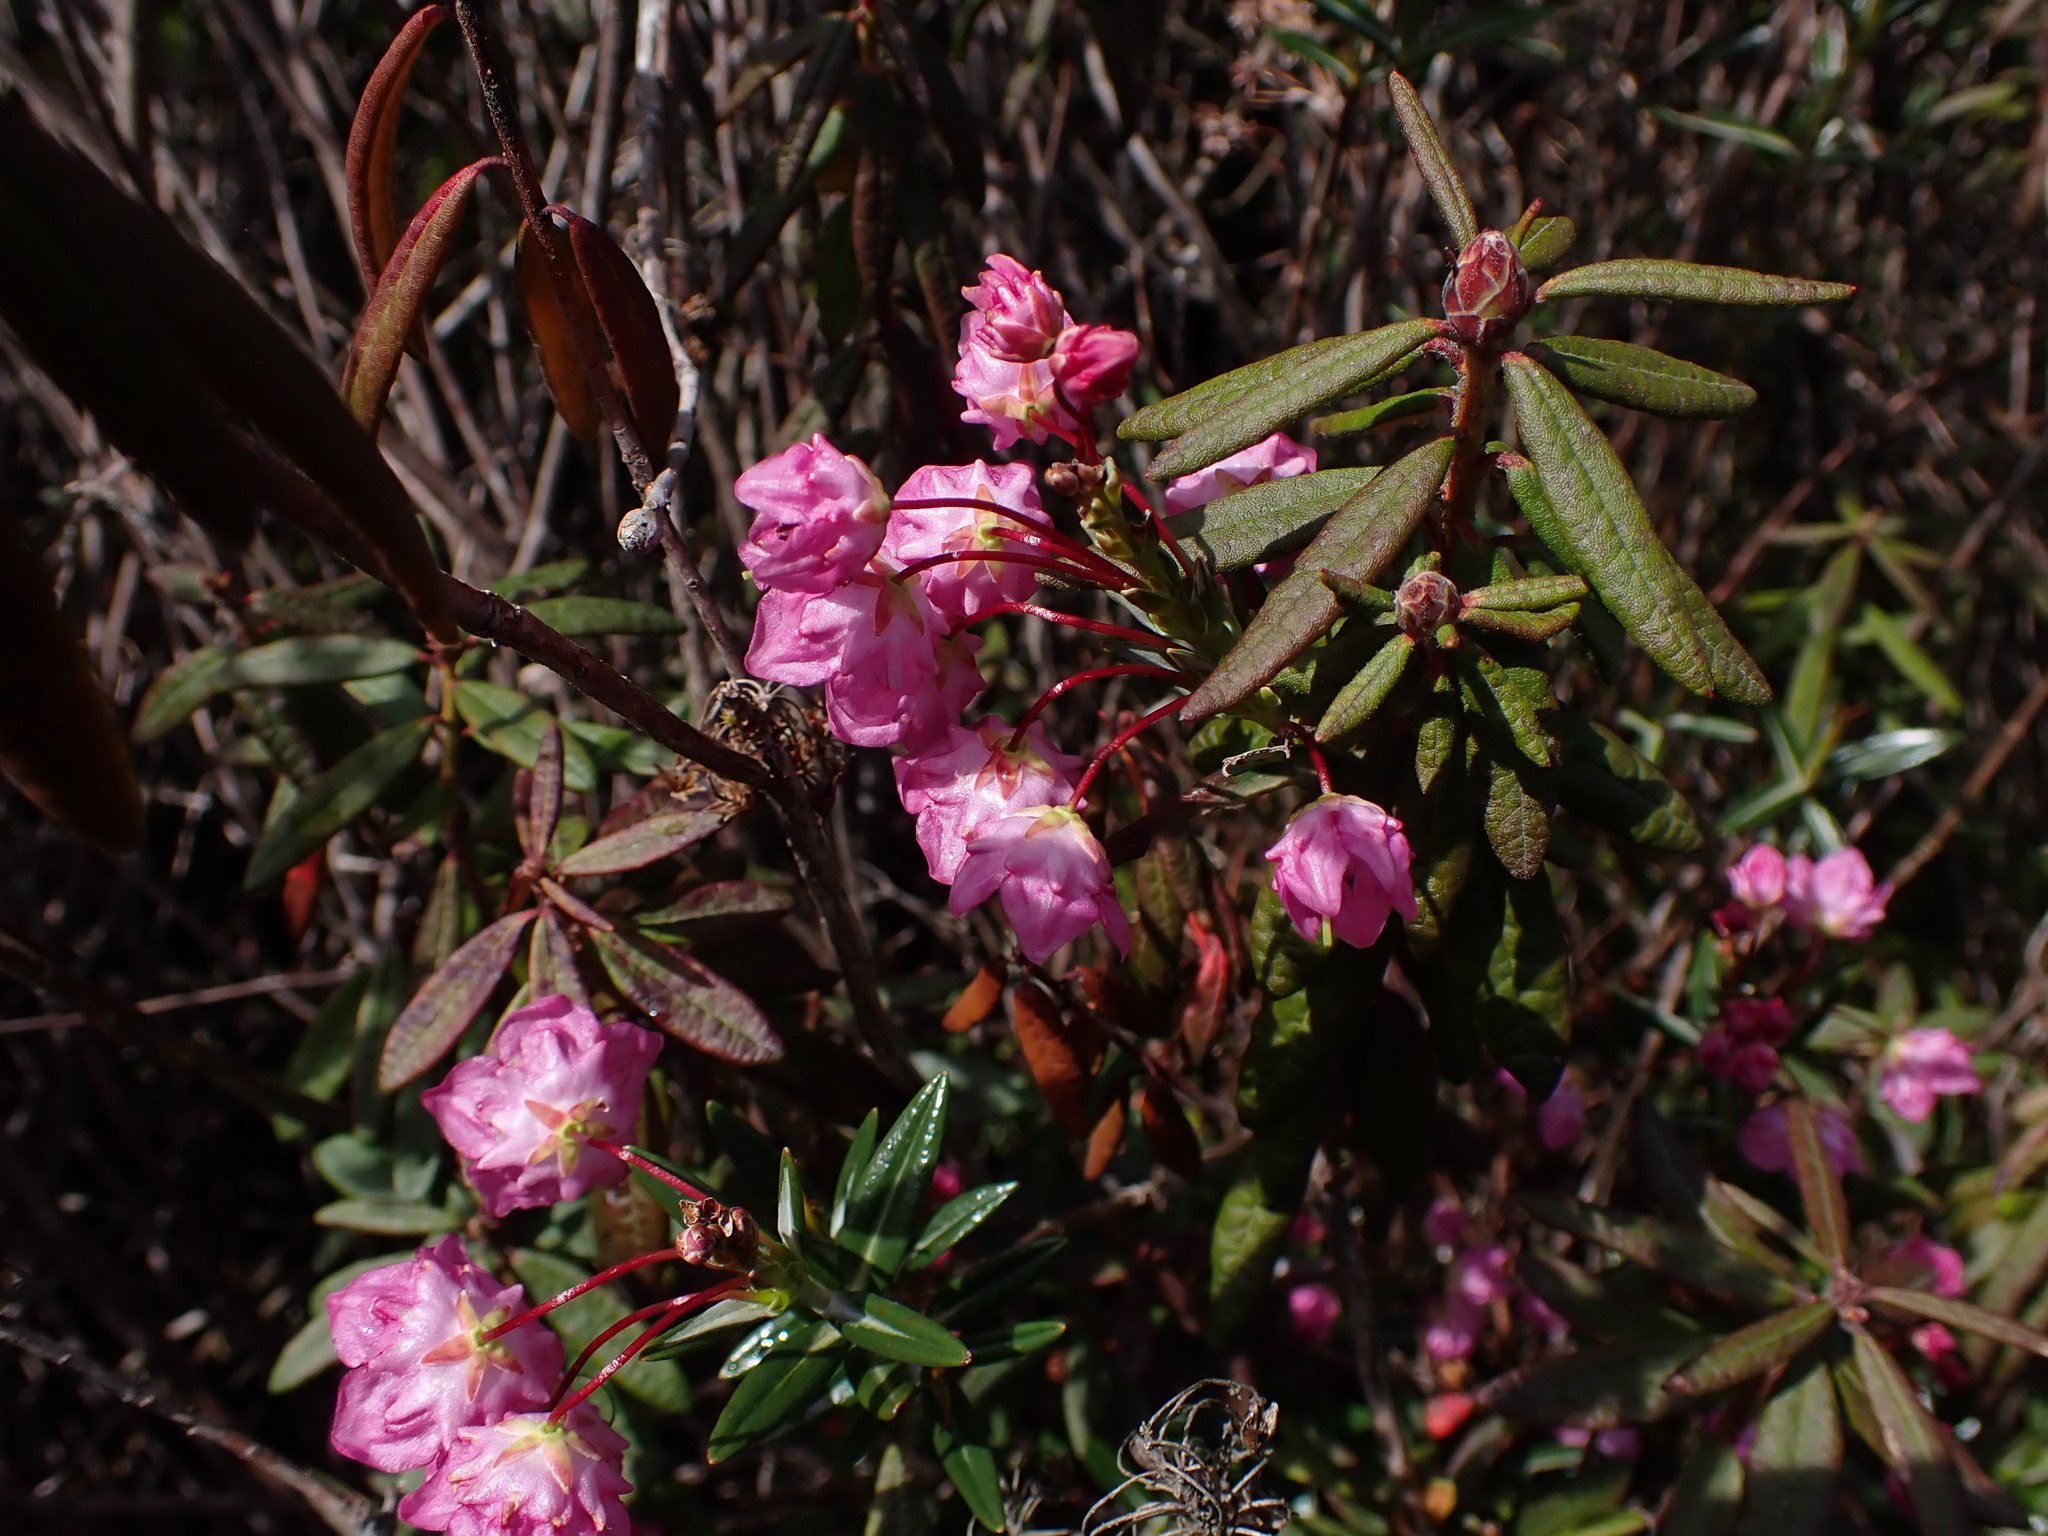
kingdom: Plantae
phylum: Tracheophyta
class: Magnoliopsida
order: Ericales
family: Ericaceae
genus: Kalmia
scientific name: Kalmia microphylla
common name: Alpine bog laurel
